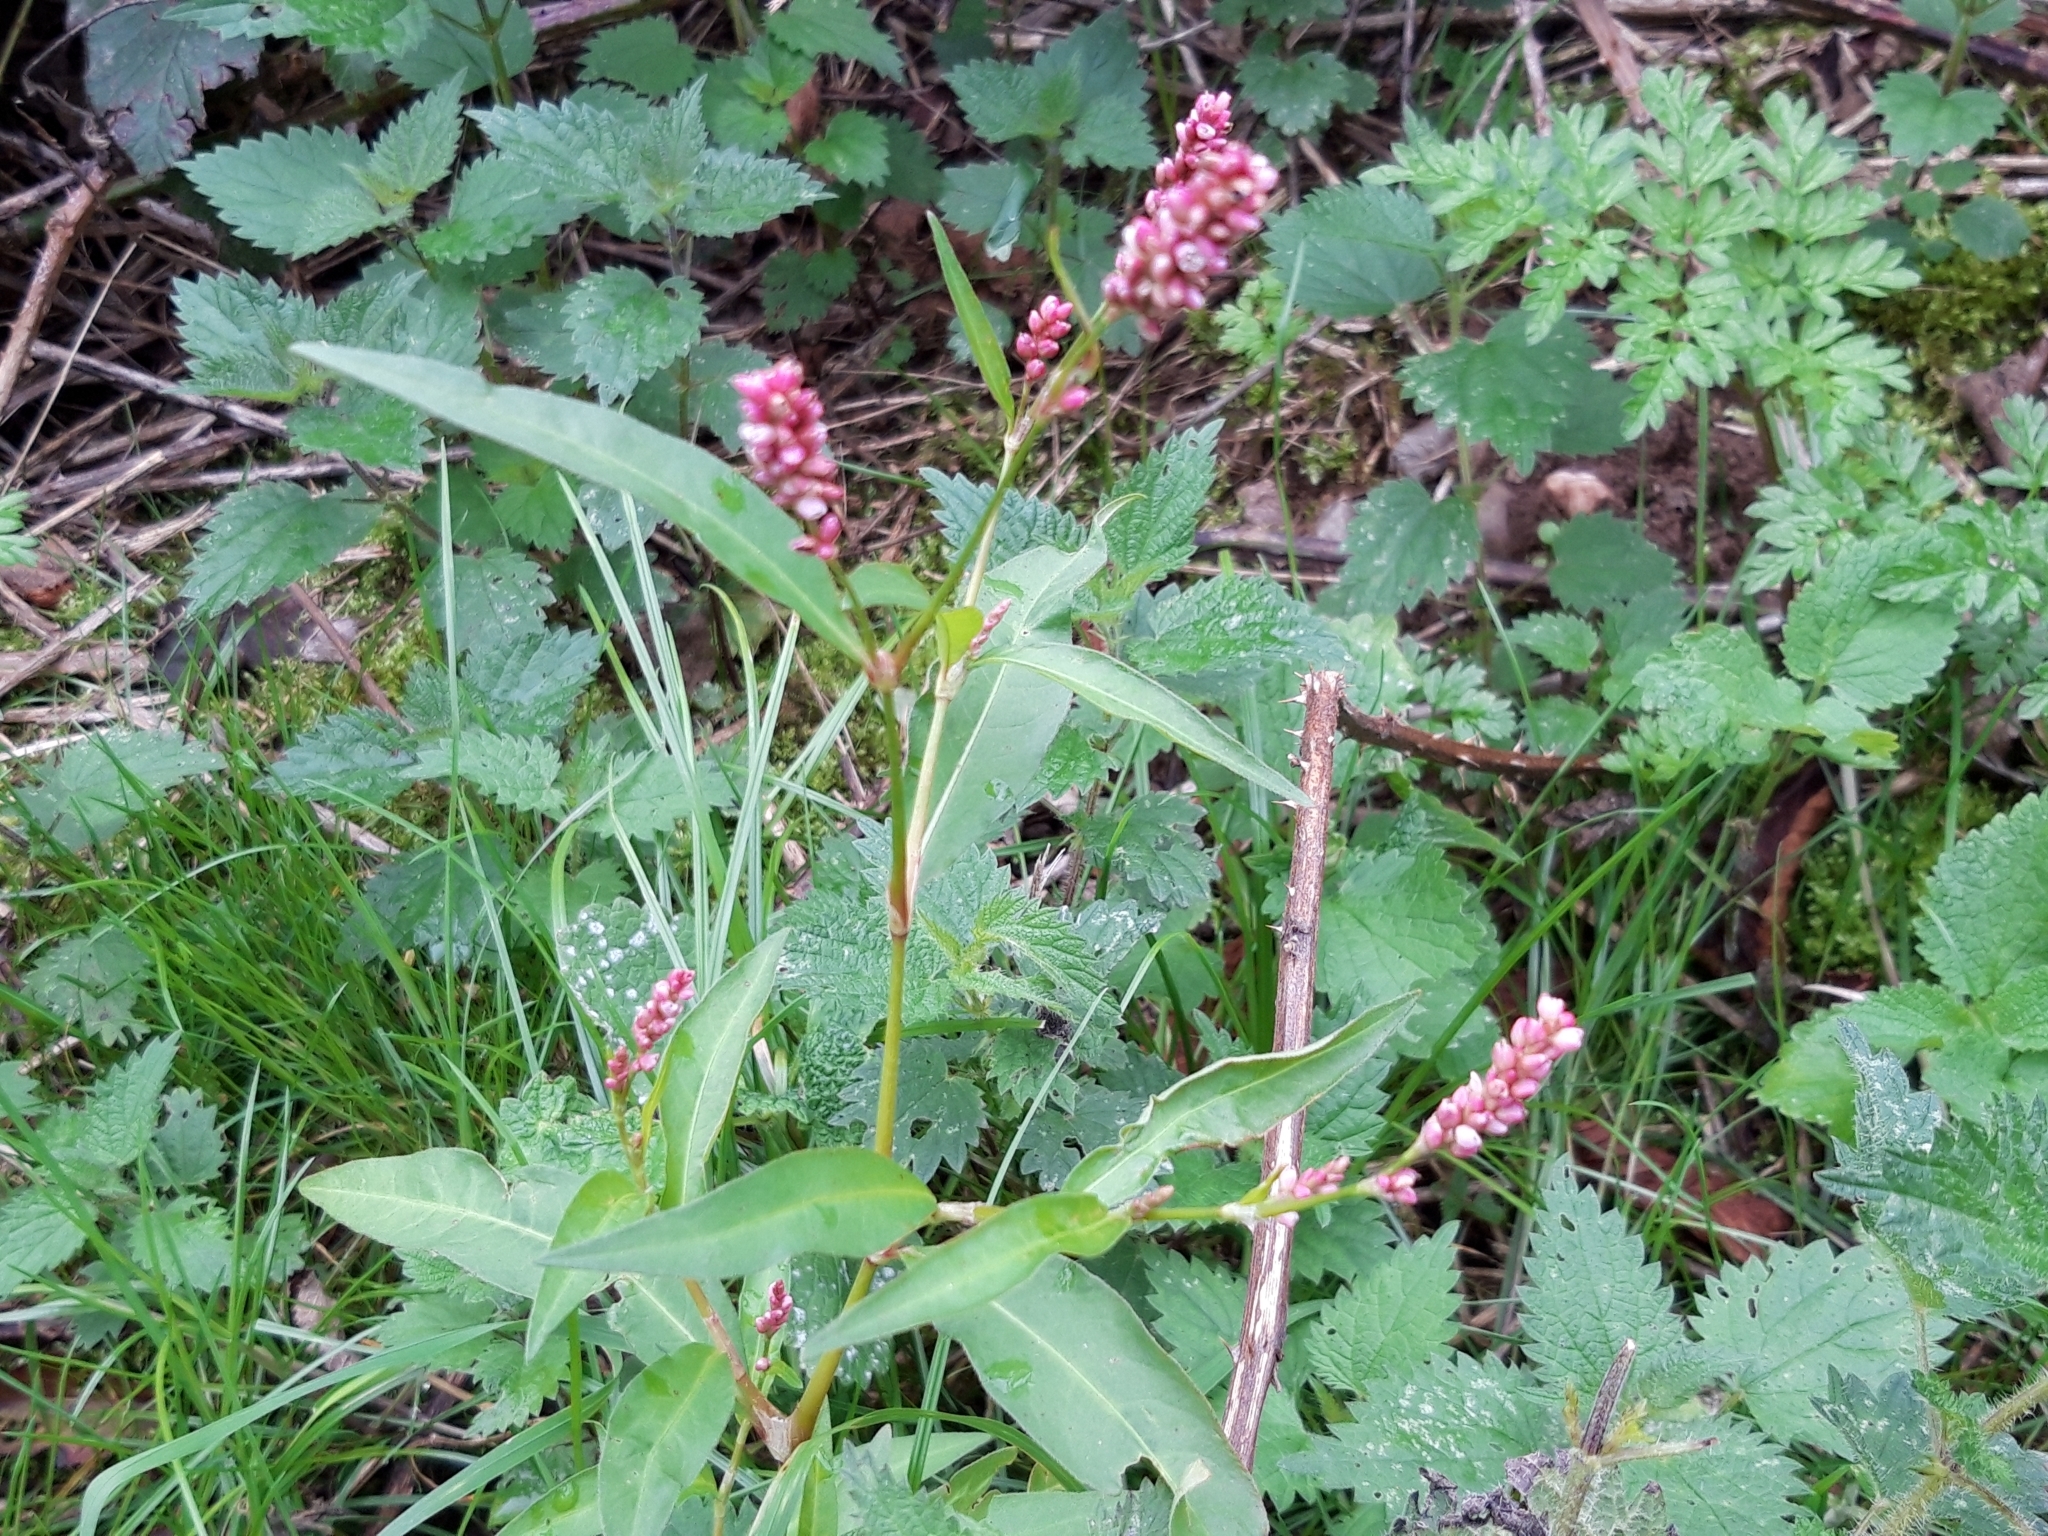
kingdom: Plantae
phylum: Tracheophyta
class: Magnoliopsida
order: Caryophyllales
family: Polygonaceae
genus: Persicaria
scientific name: Persicaria maculosa
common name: Redshank
